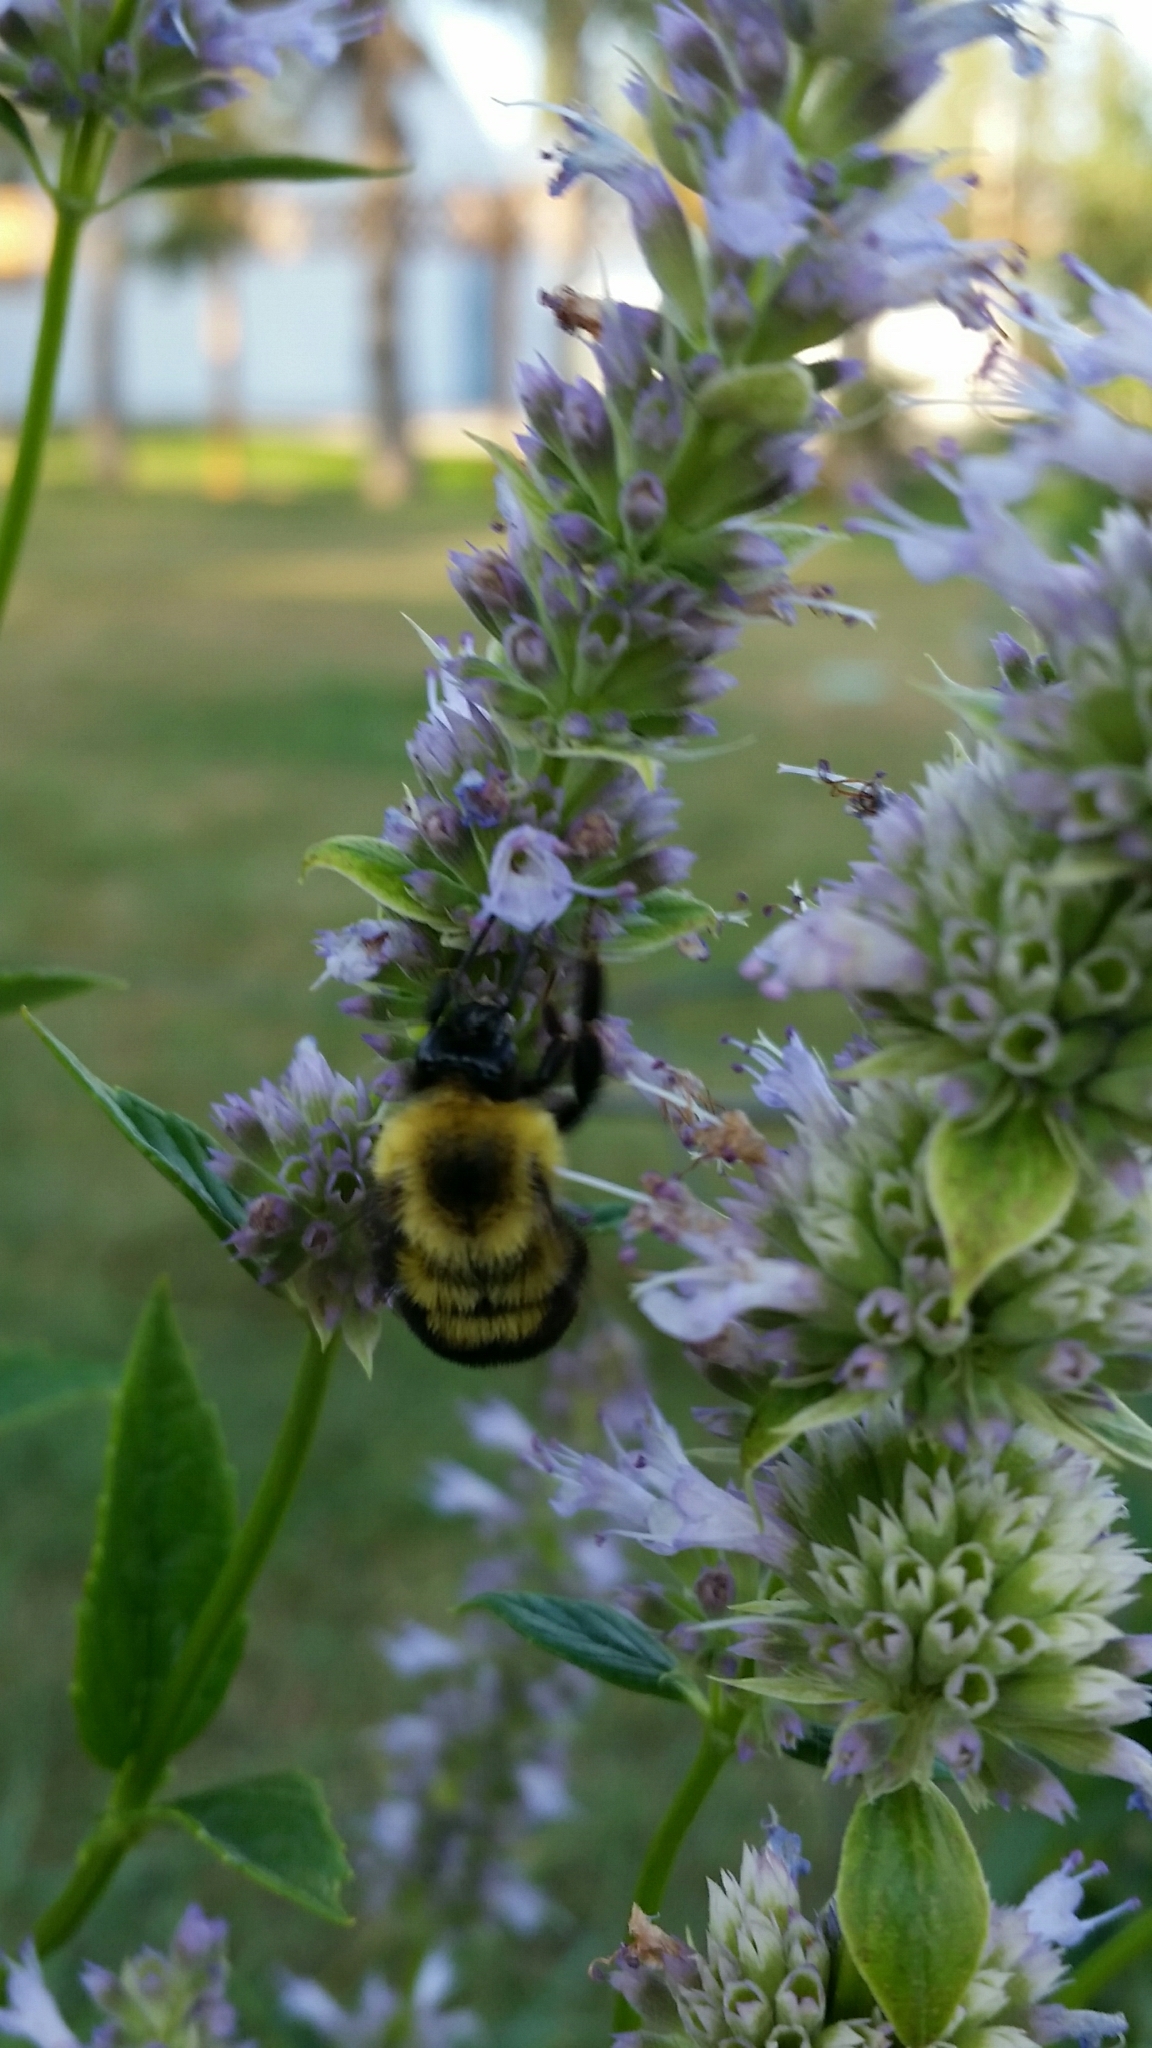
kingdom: Animalia
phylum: Arthropoda
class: Insecta
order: Hymenoptera
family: Apidae
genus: Bombus
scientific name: Bombus bimaculatus
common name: Two-spotted bumble bee
